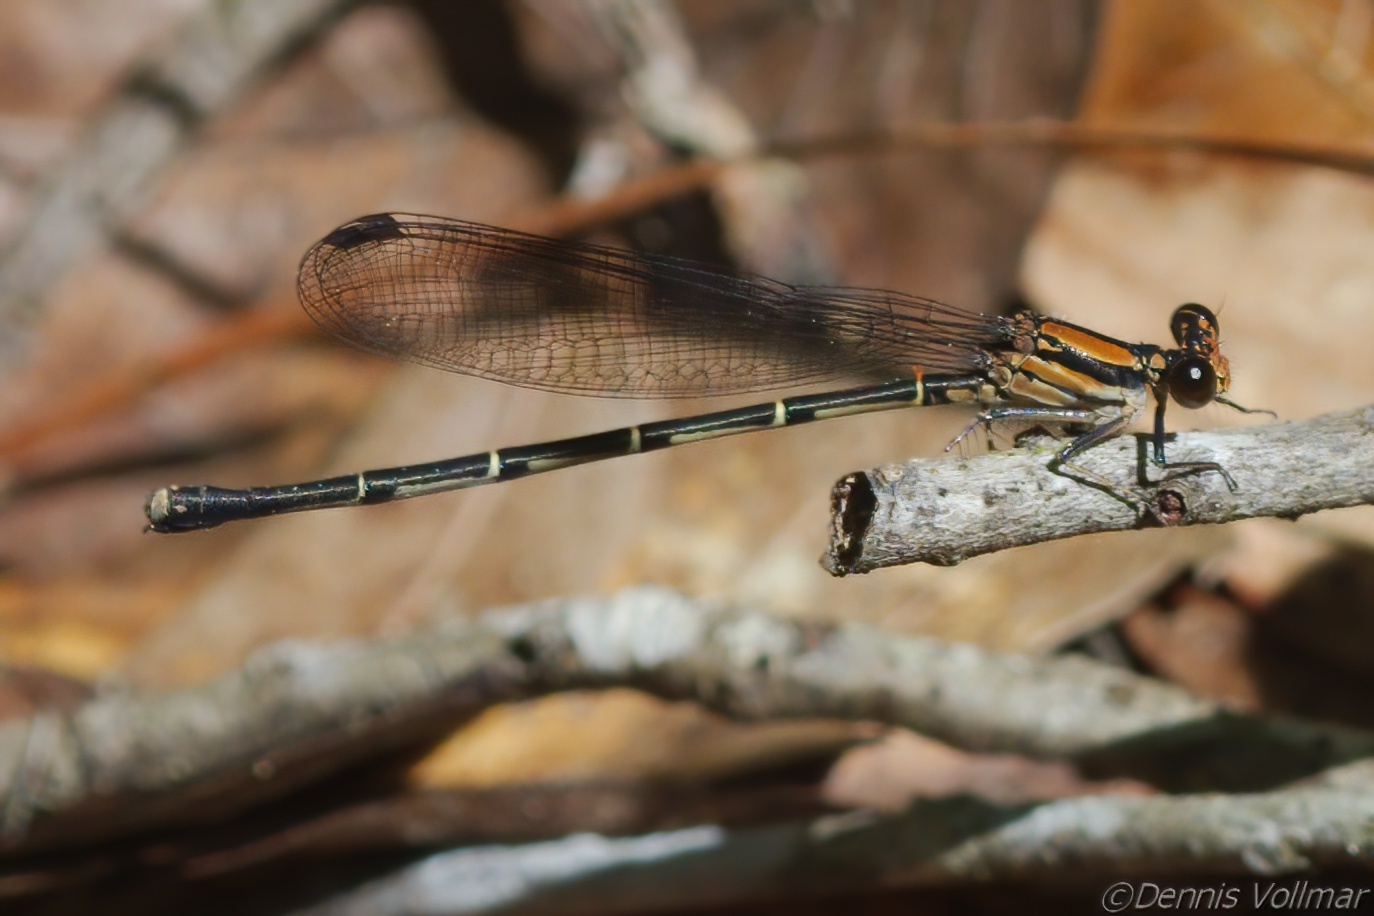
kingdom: Animalia
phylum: Arthropoda
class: Insecta
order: Odonata
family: Coenagrionidae
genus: Argia
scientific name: Argia tibialis
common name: Blue-tipped dancer
